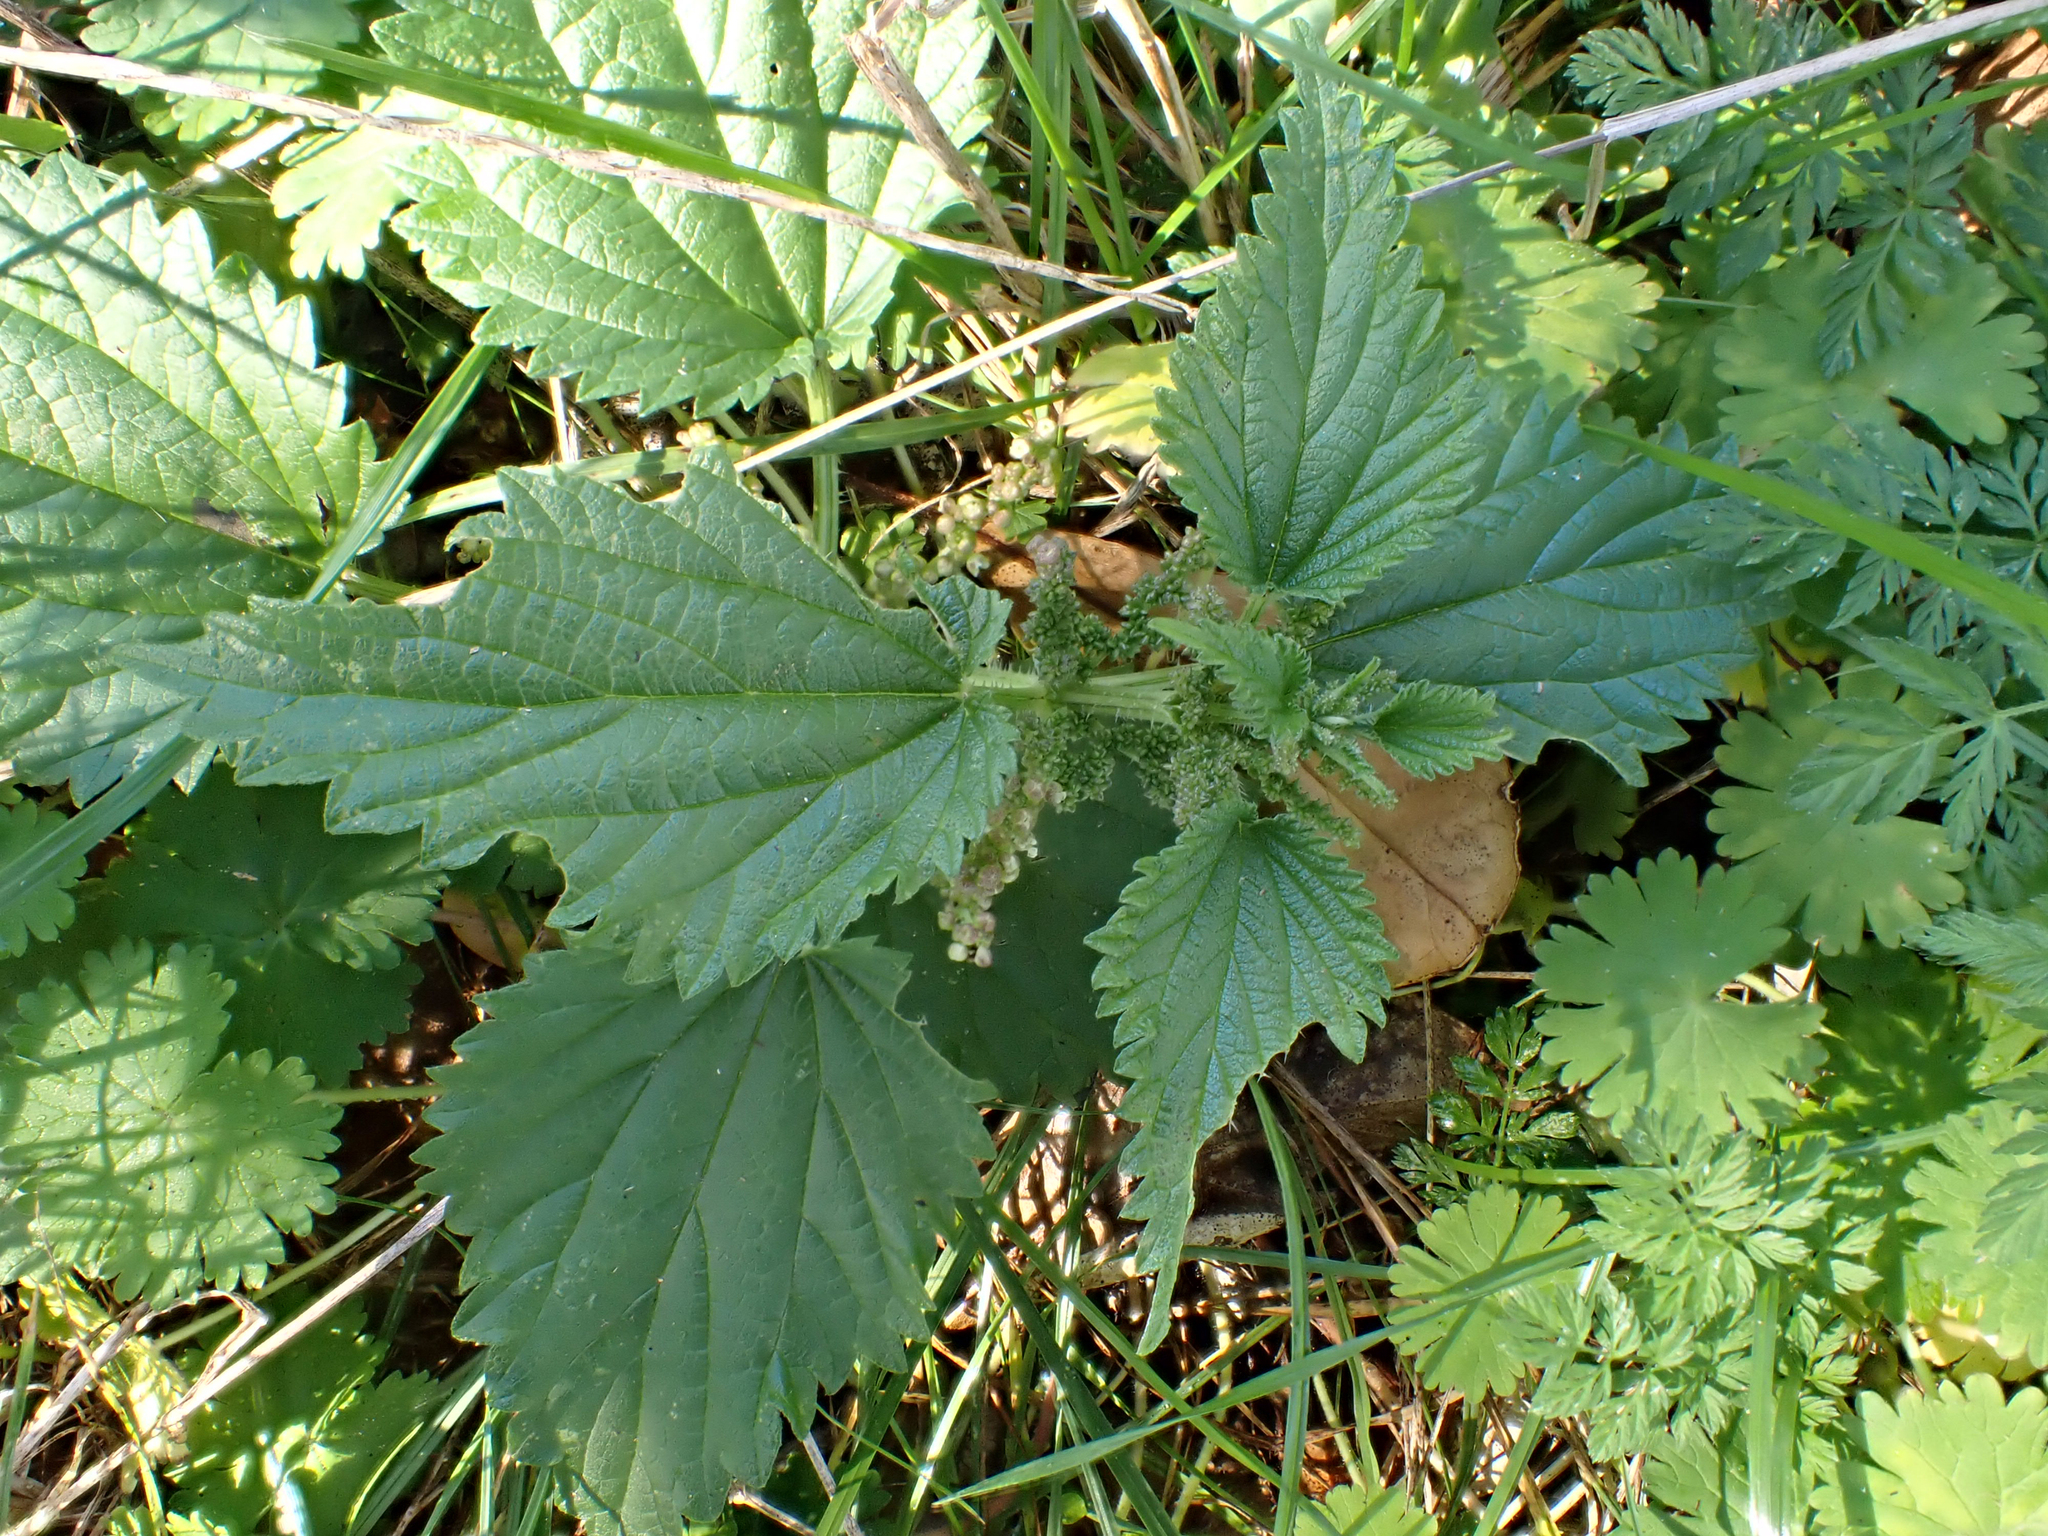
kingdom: Plantae
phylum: Tracheophyta
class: Magnoliopsida
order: Rosales
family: Urticaceae
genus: Urtica
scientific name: Urtica australis
